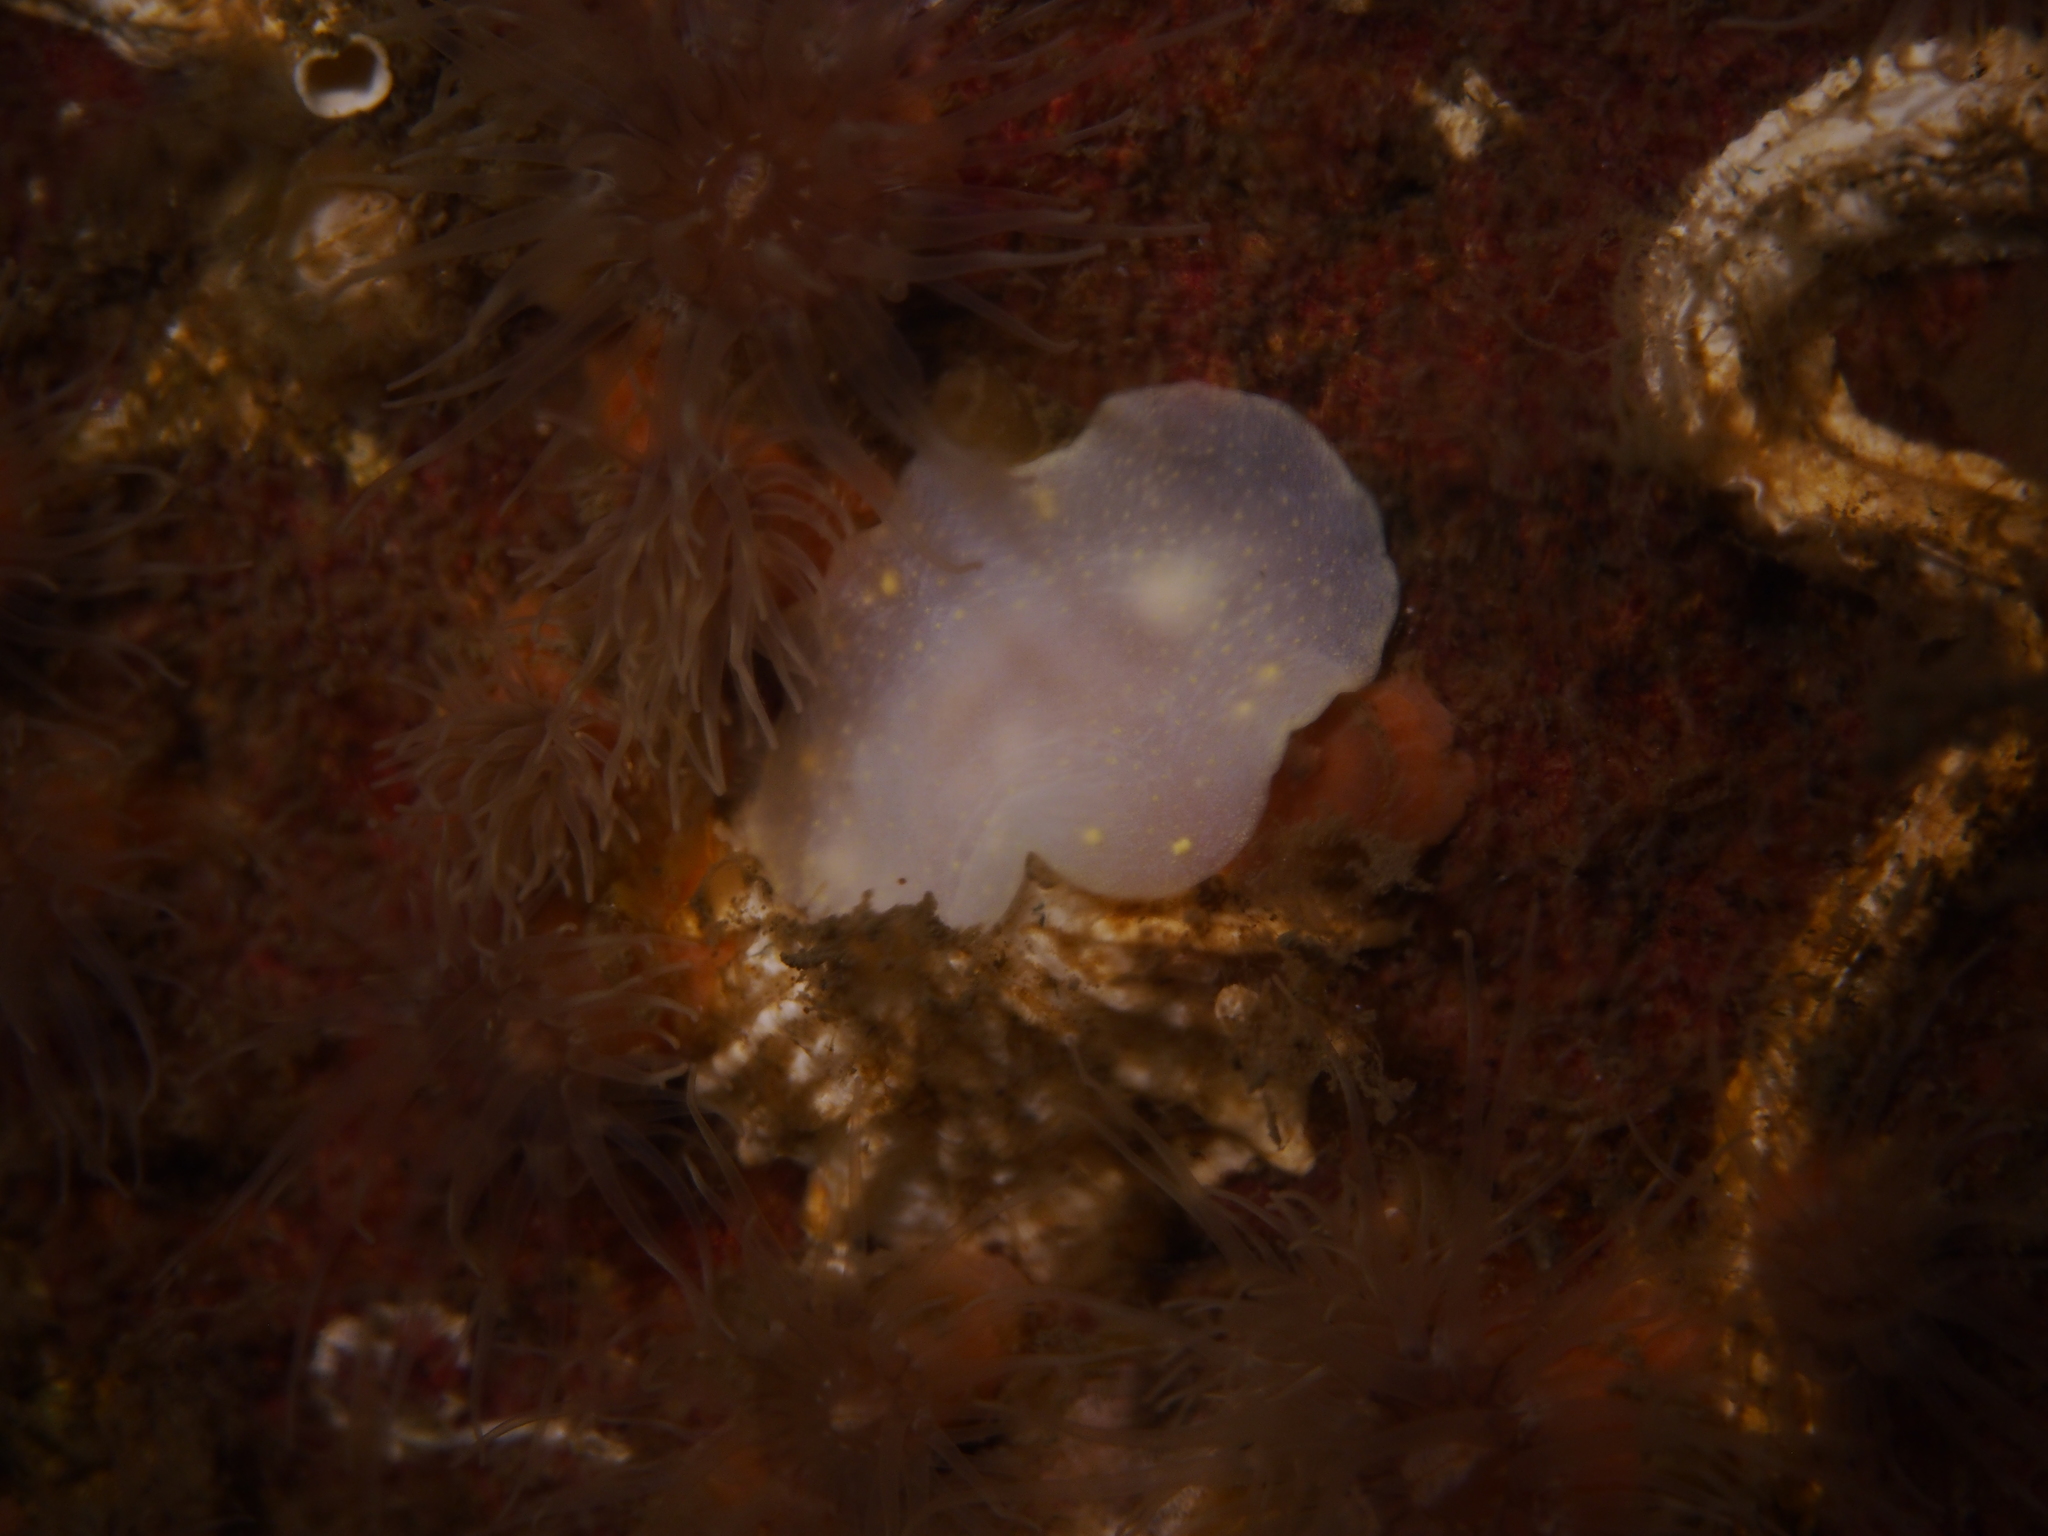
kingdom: Animalia
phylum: Mollusca
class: Gastropoda
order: Nudibranchia
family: Cadlinidae
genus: Cadlina
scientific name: Cadlina laevis
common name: White atlantic cadlina
